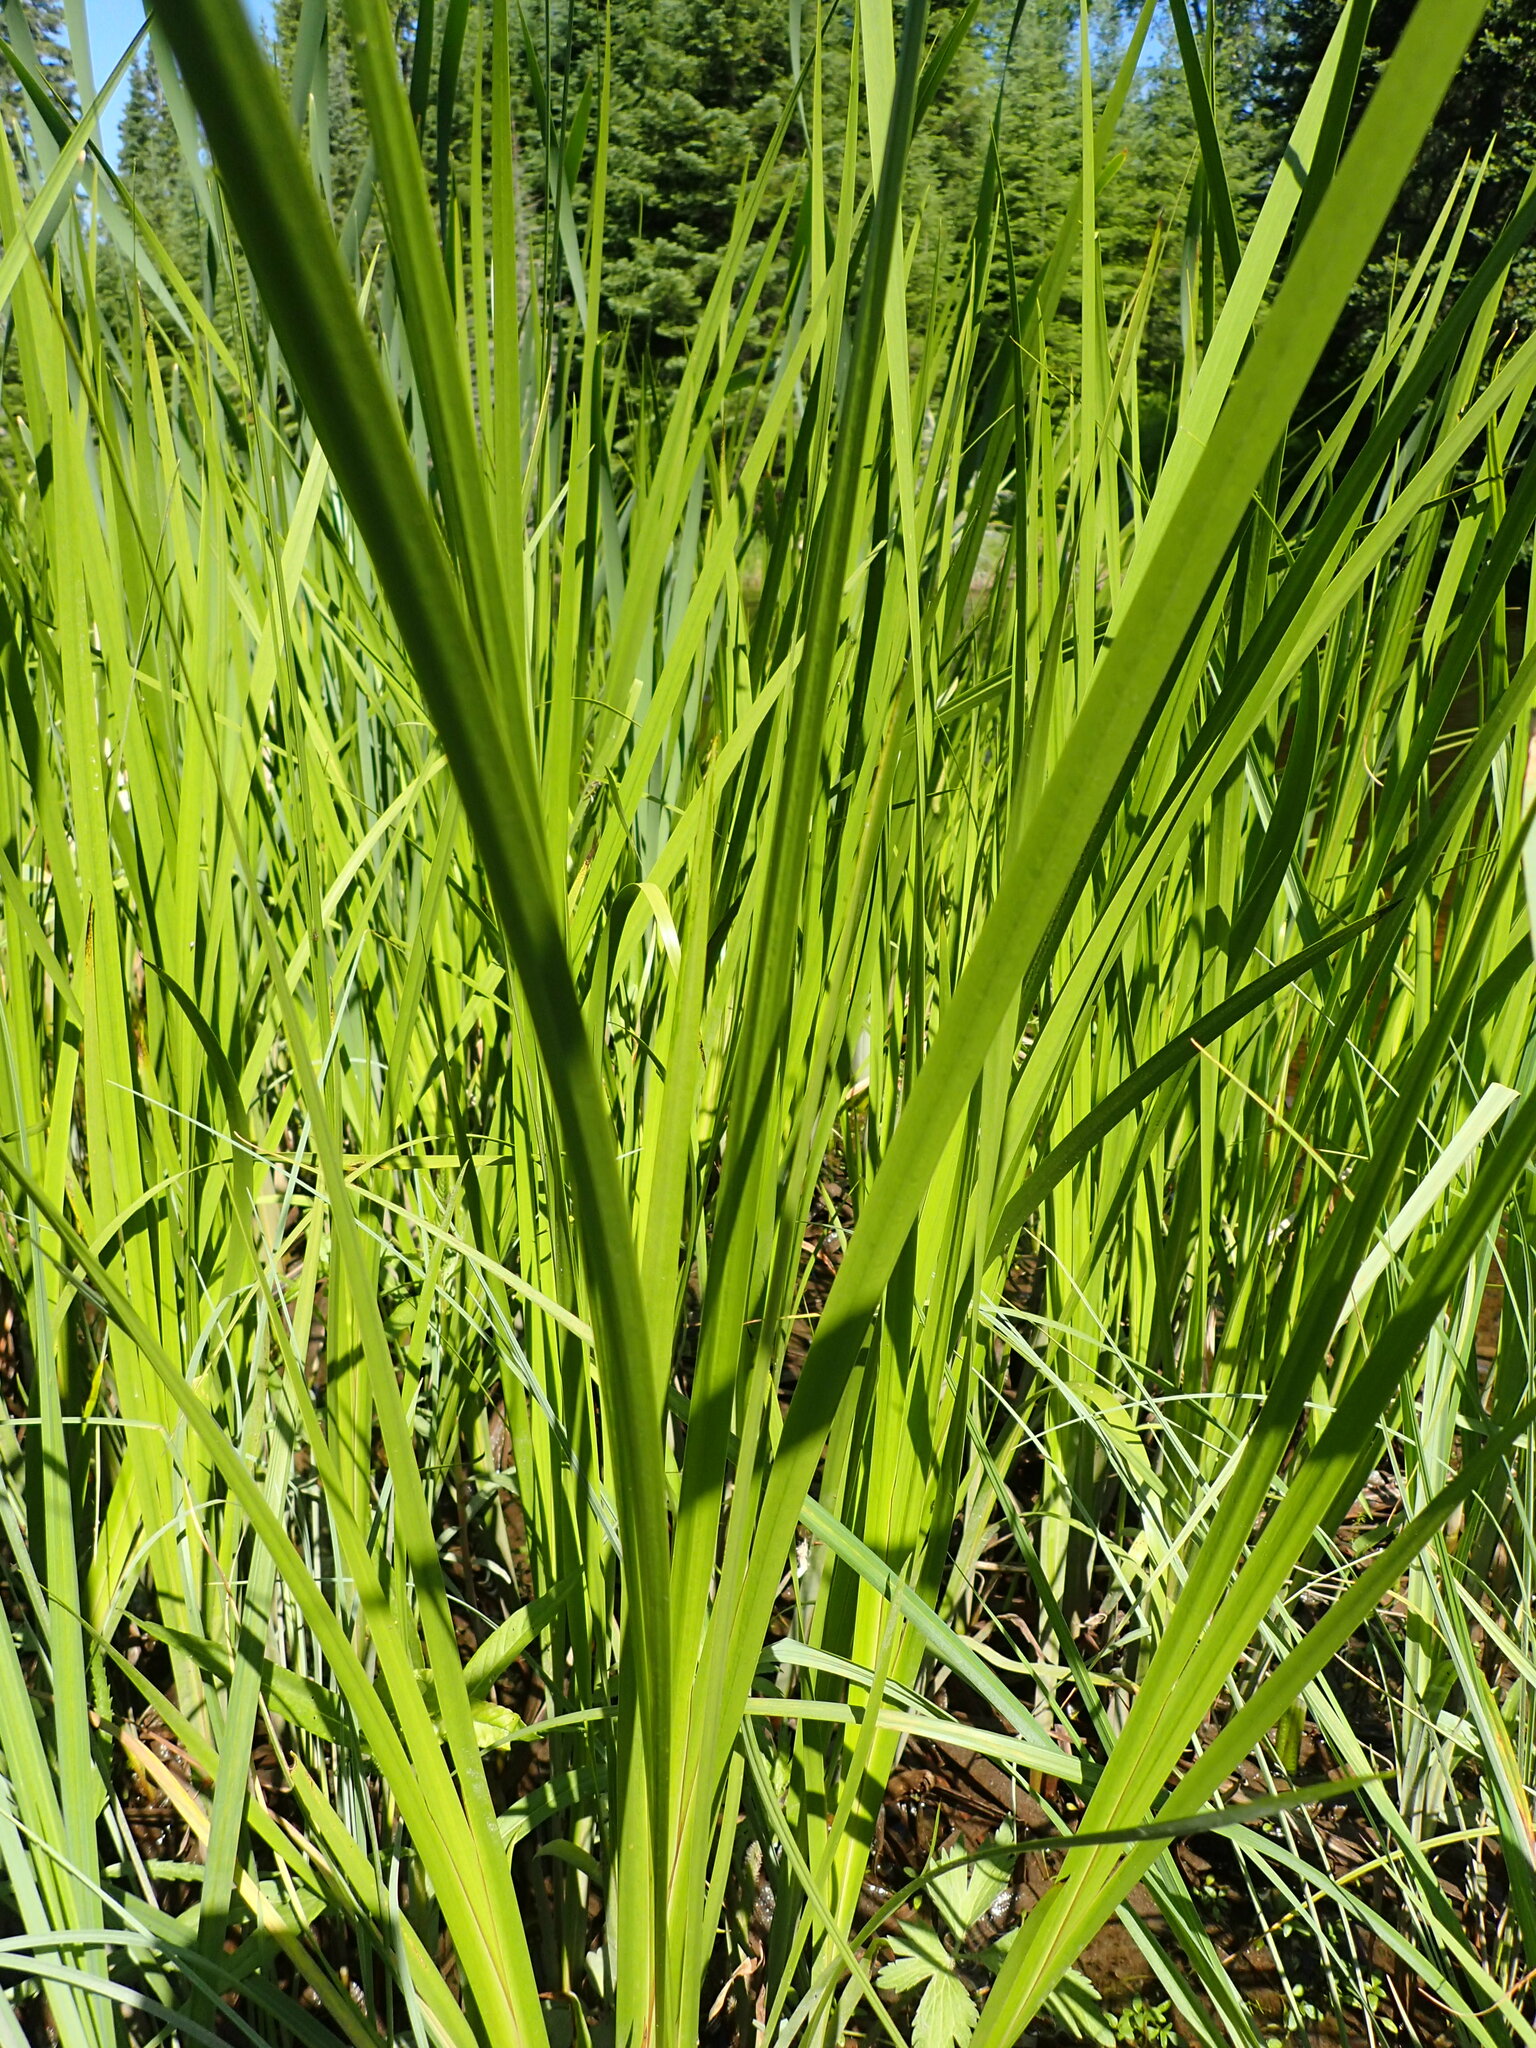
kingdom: Plantae
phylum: Tracheophyta
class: Liliopsida
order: Acorales
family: Acoraceae
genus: Acorus
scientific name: Acorus calamus
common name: Sweet-flag
